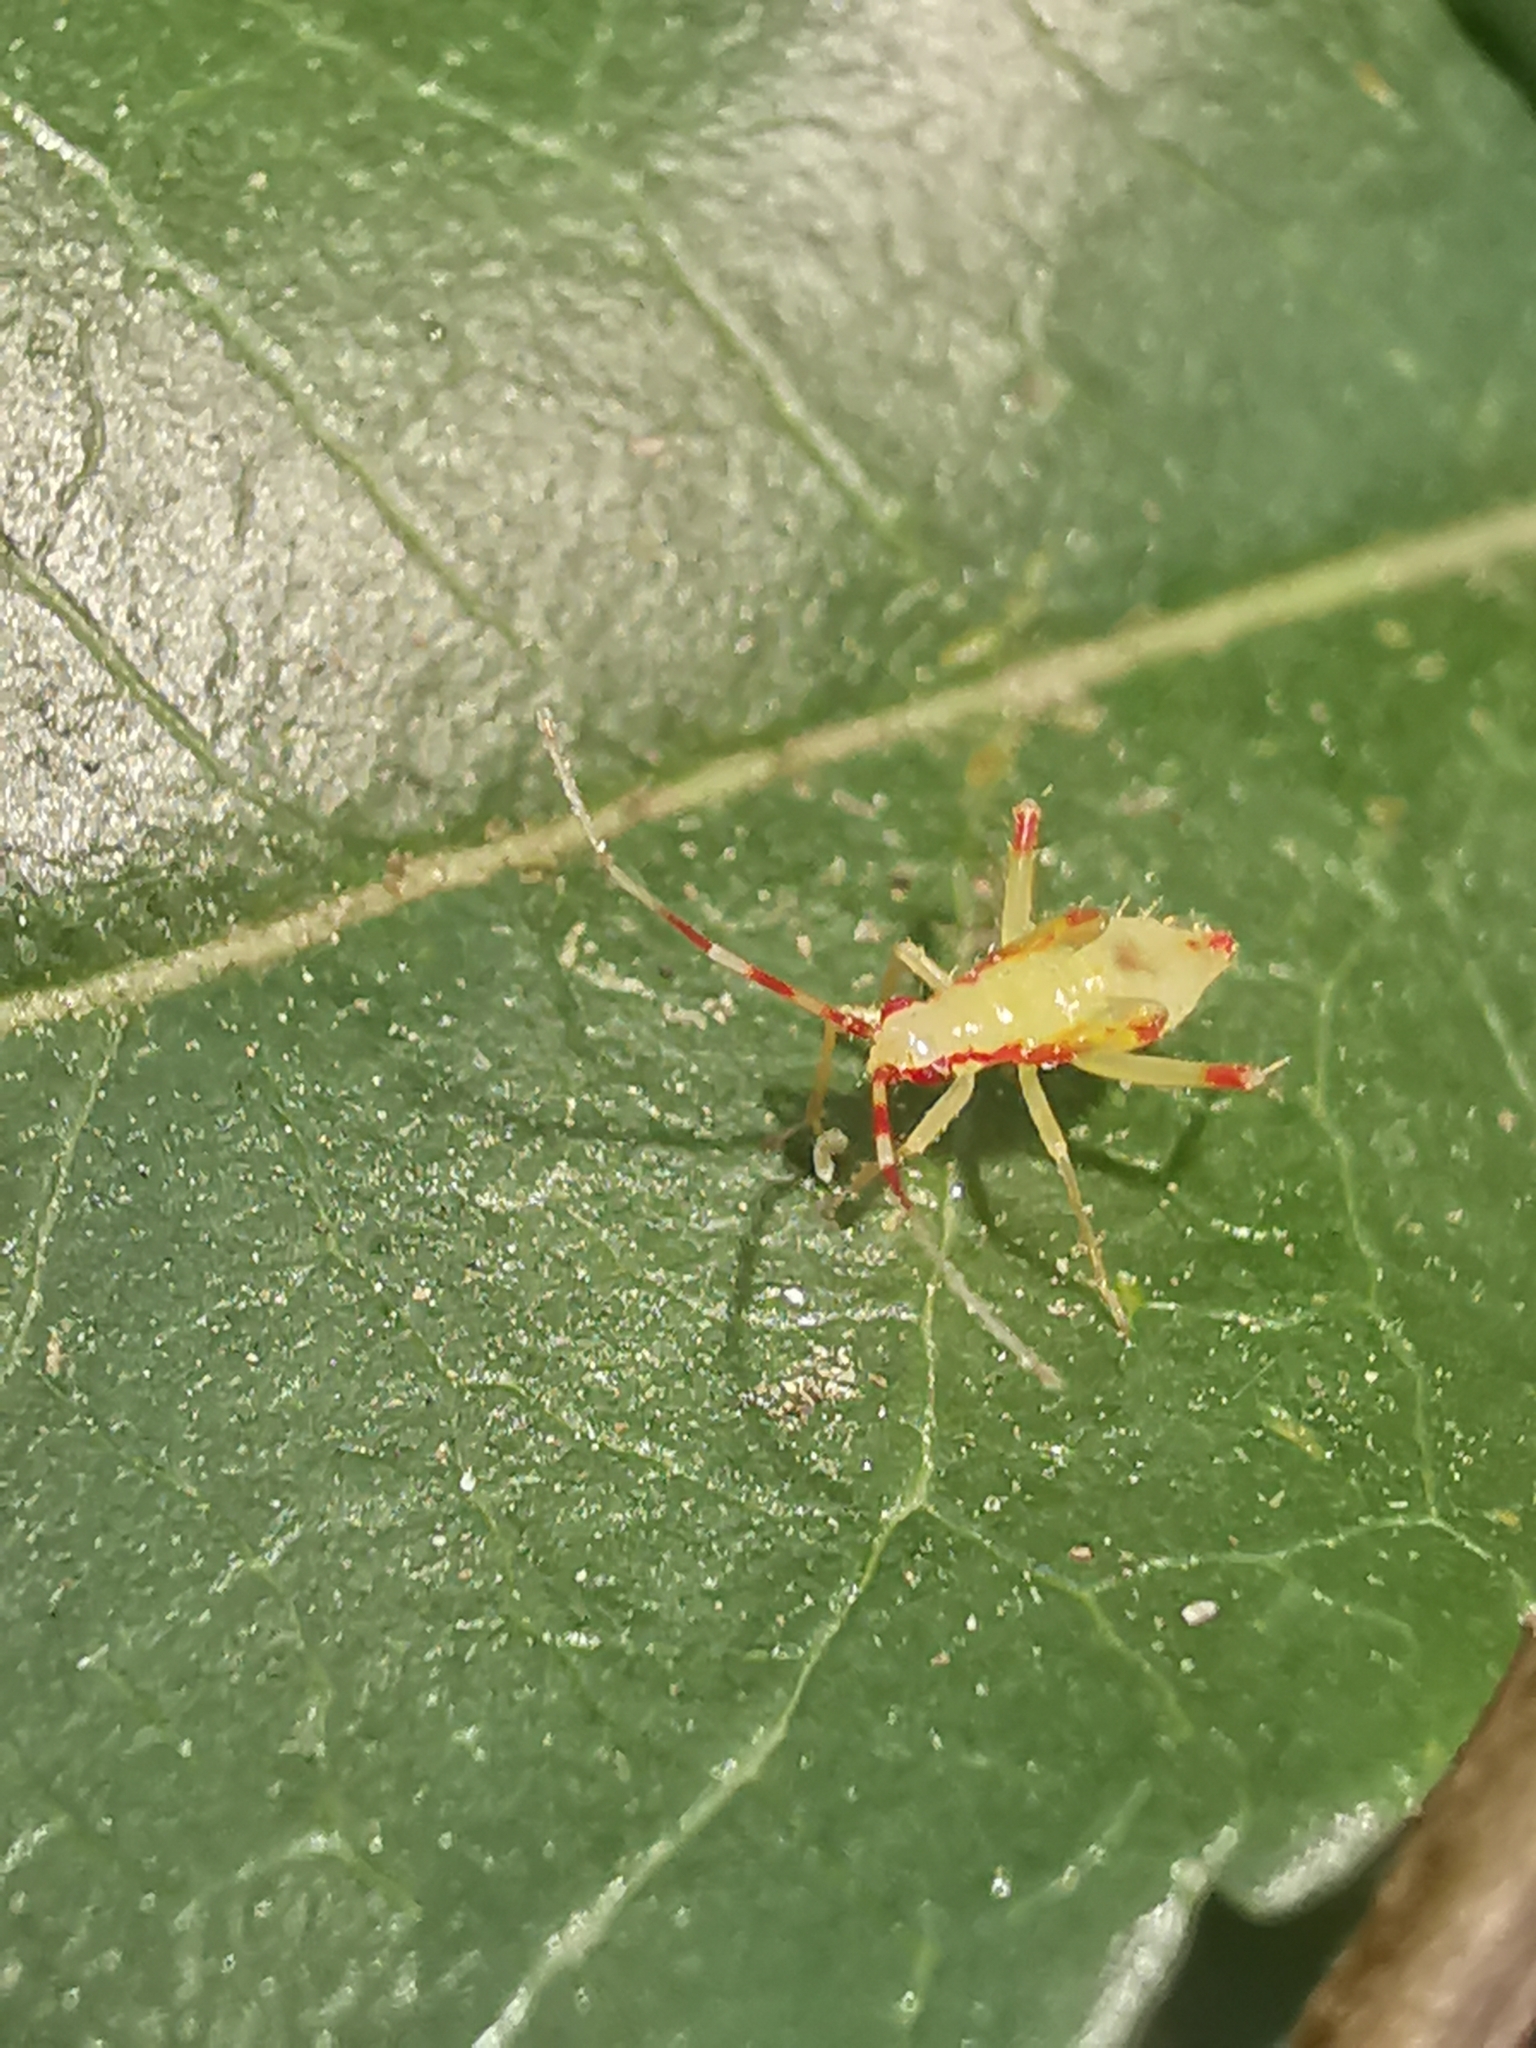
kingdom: Animalia
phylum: Arthropoda
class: Insecta
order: Hemiptera
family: Miridae
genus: Campyloneura
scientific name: Campyloneura virgula
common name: Predatory bug
